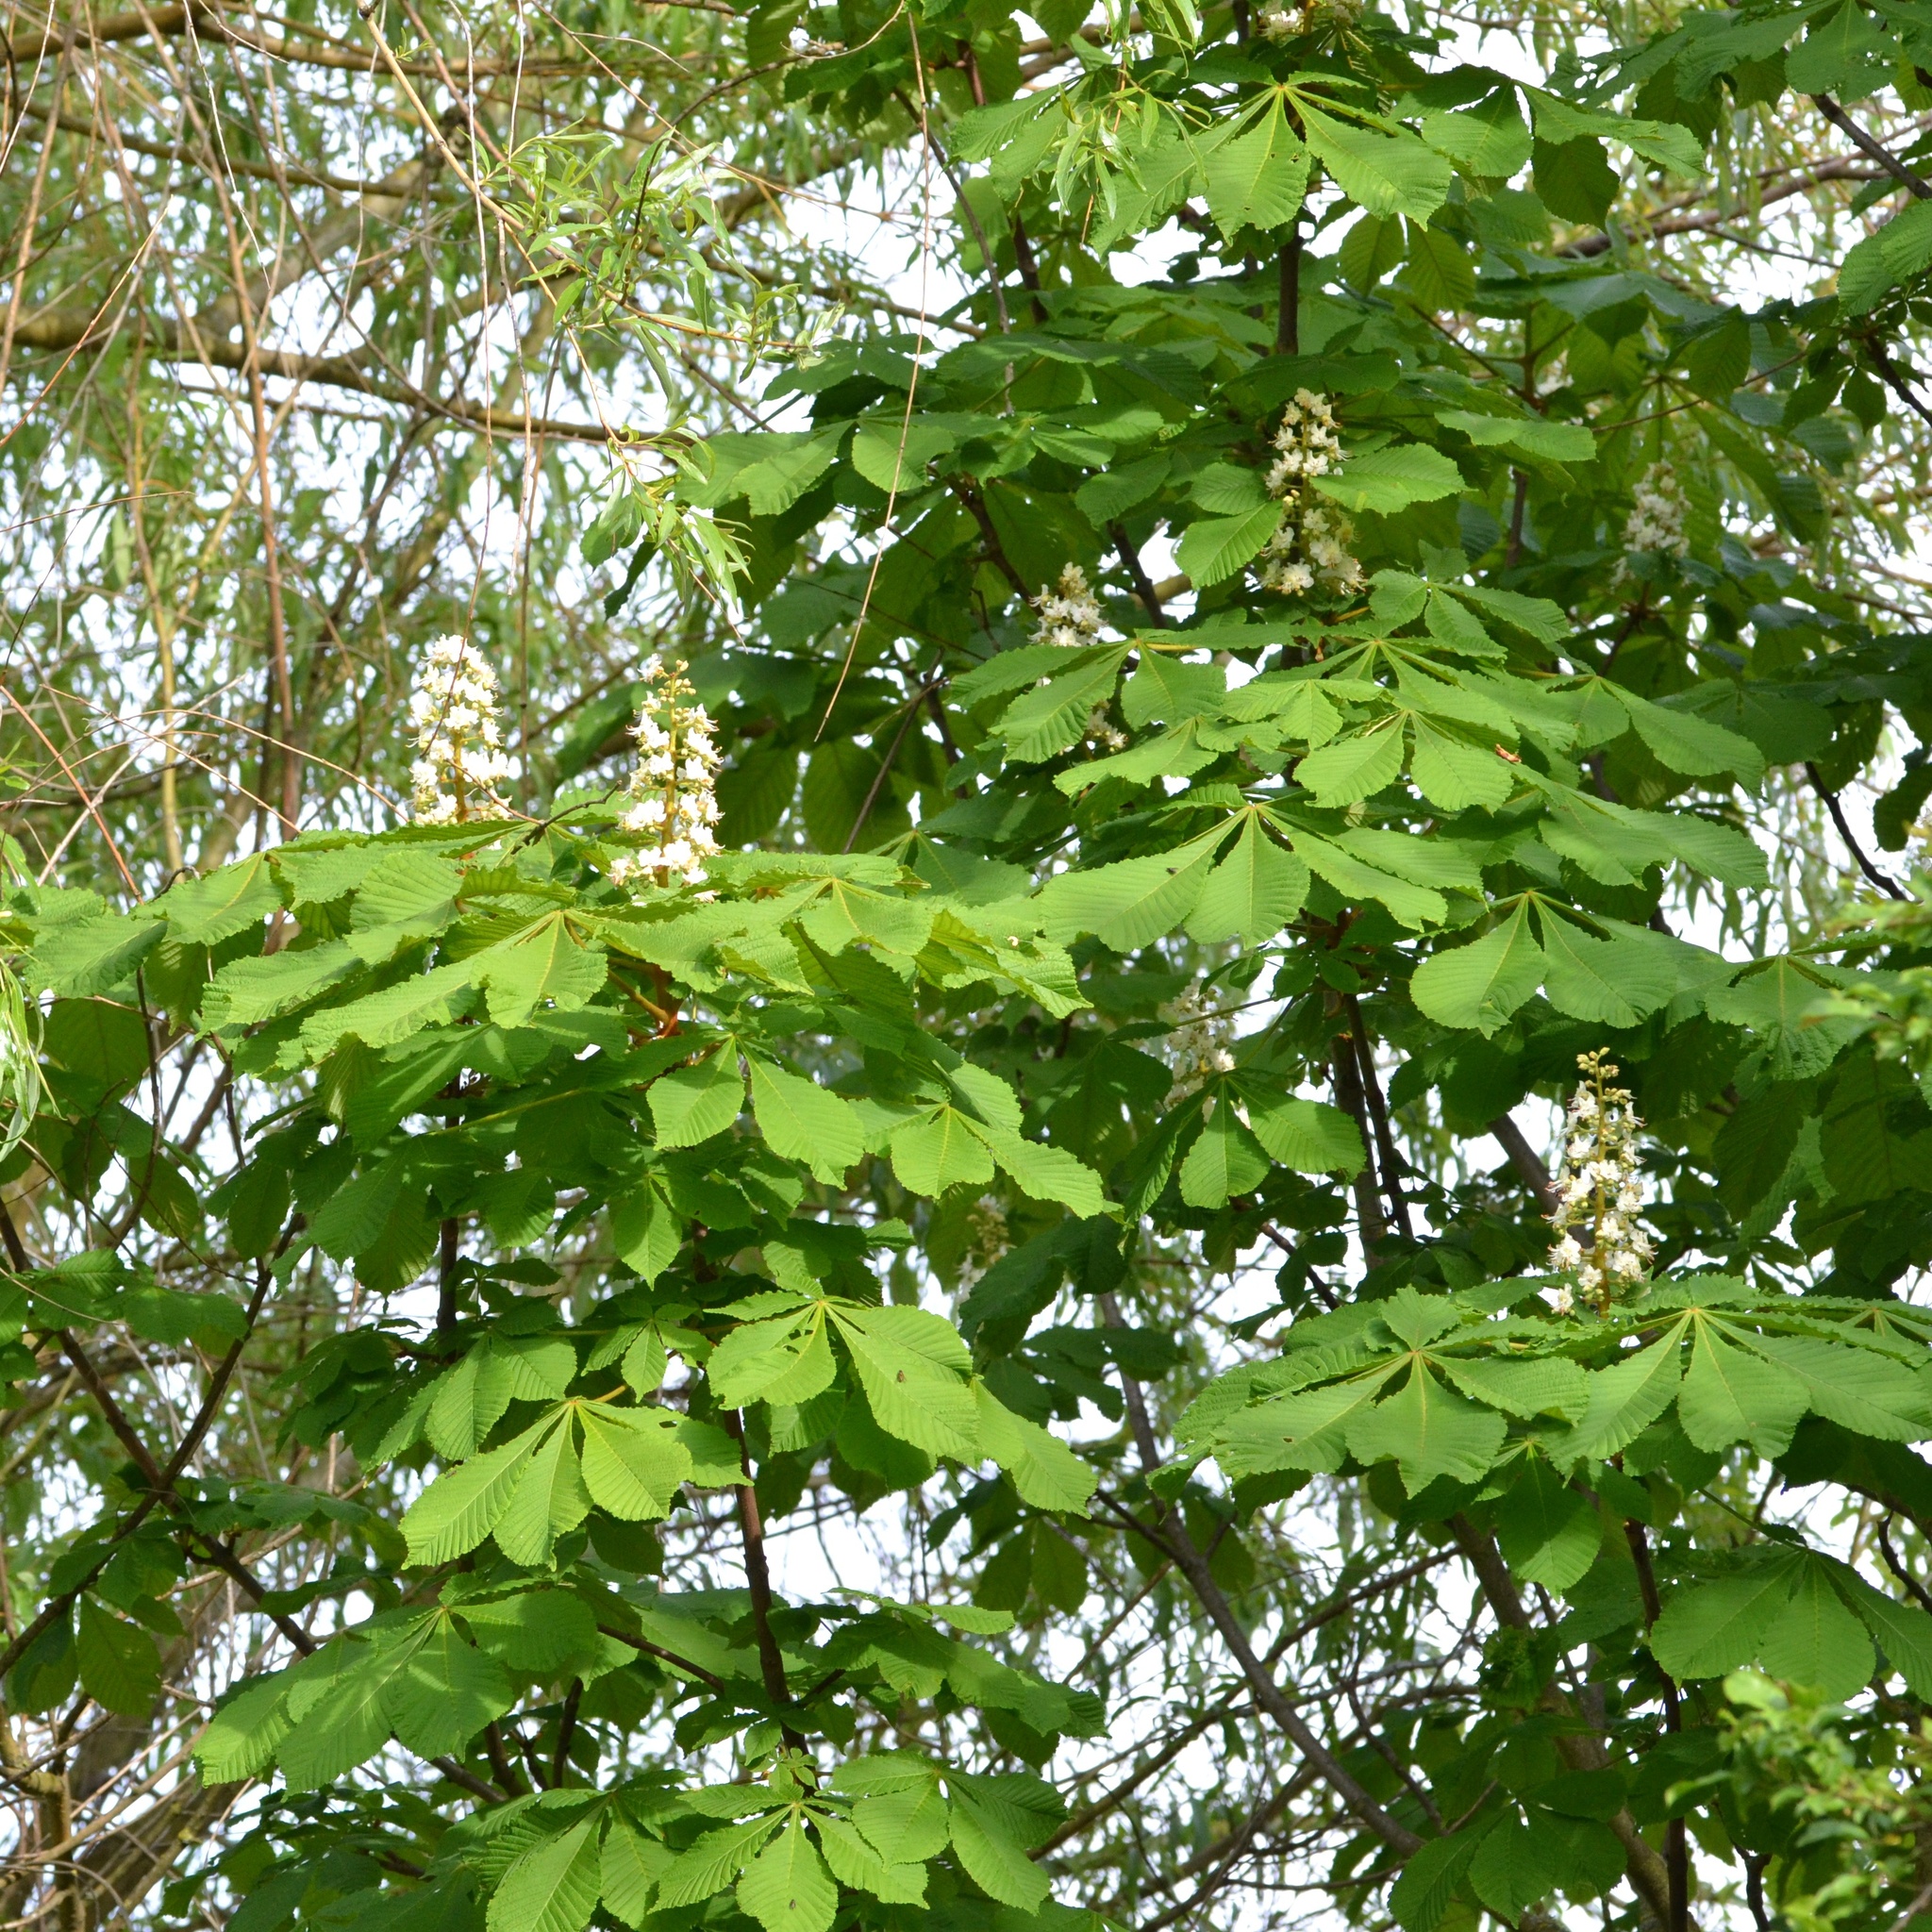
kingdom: Plantae
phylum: Tracheophyta
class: Magnoliopsida
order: Sapindales
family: Sapindaceae
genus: Aesculus
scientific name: Aesculus hippocastanum
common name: Horse-chestnut
